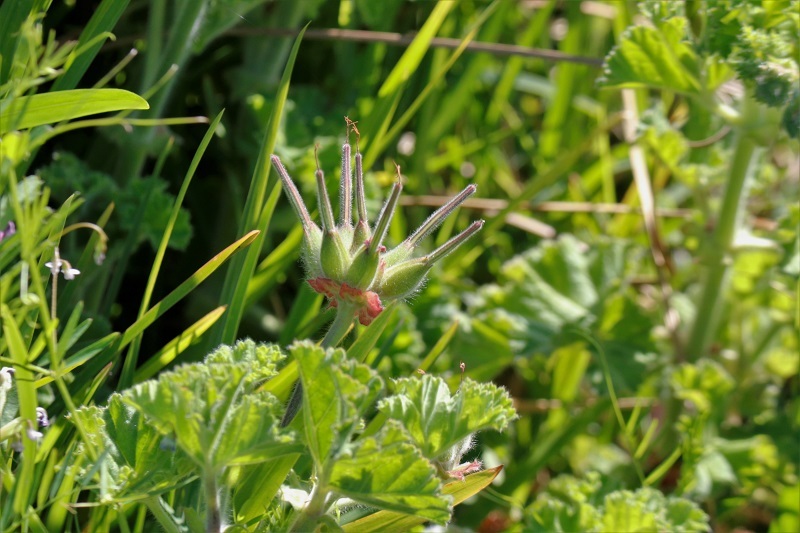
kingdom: Plantae
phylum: Tracheophyta
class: Magnoliopsida
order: Geraniales
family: Geraniaceae
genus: Pelargonium
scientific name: Pelargonium capitatum
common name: Rose scented geranium
